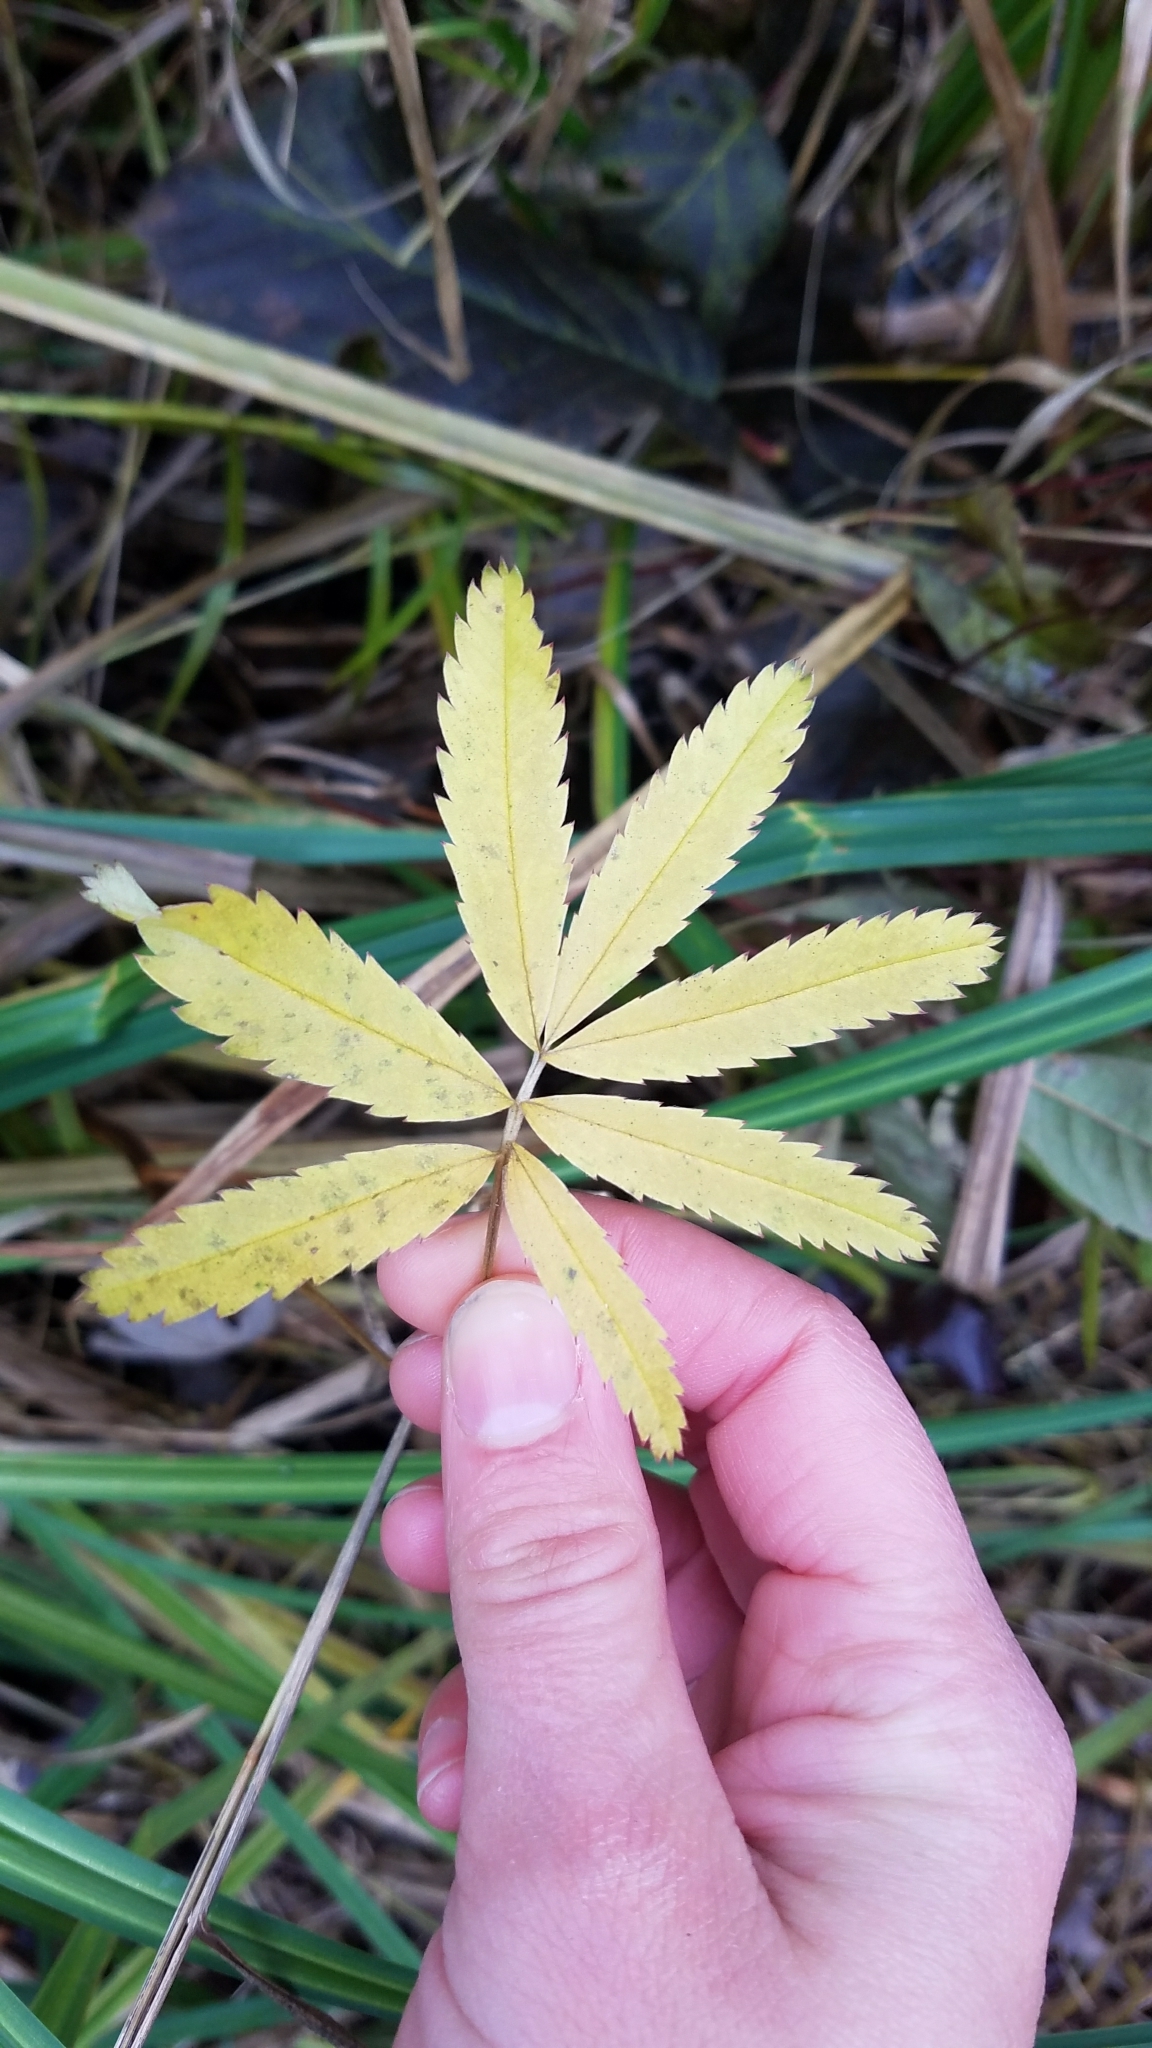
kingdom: Plantae
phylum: Tracheophyta
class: Magnoliopsida
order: Rosales
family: Rosaceae
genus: Comarum
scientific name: Comarum palustre
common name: Marsh cinquefoil
